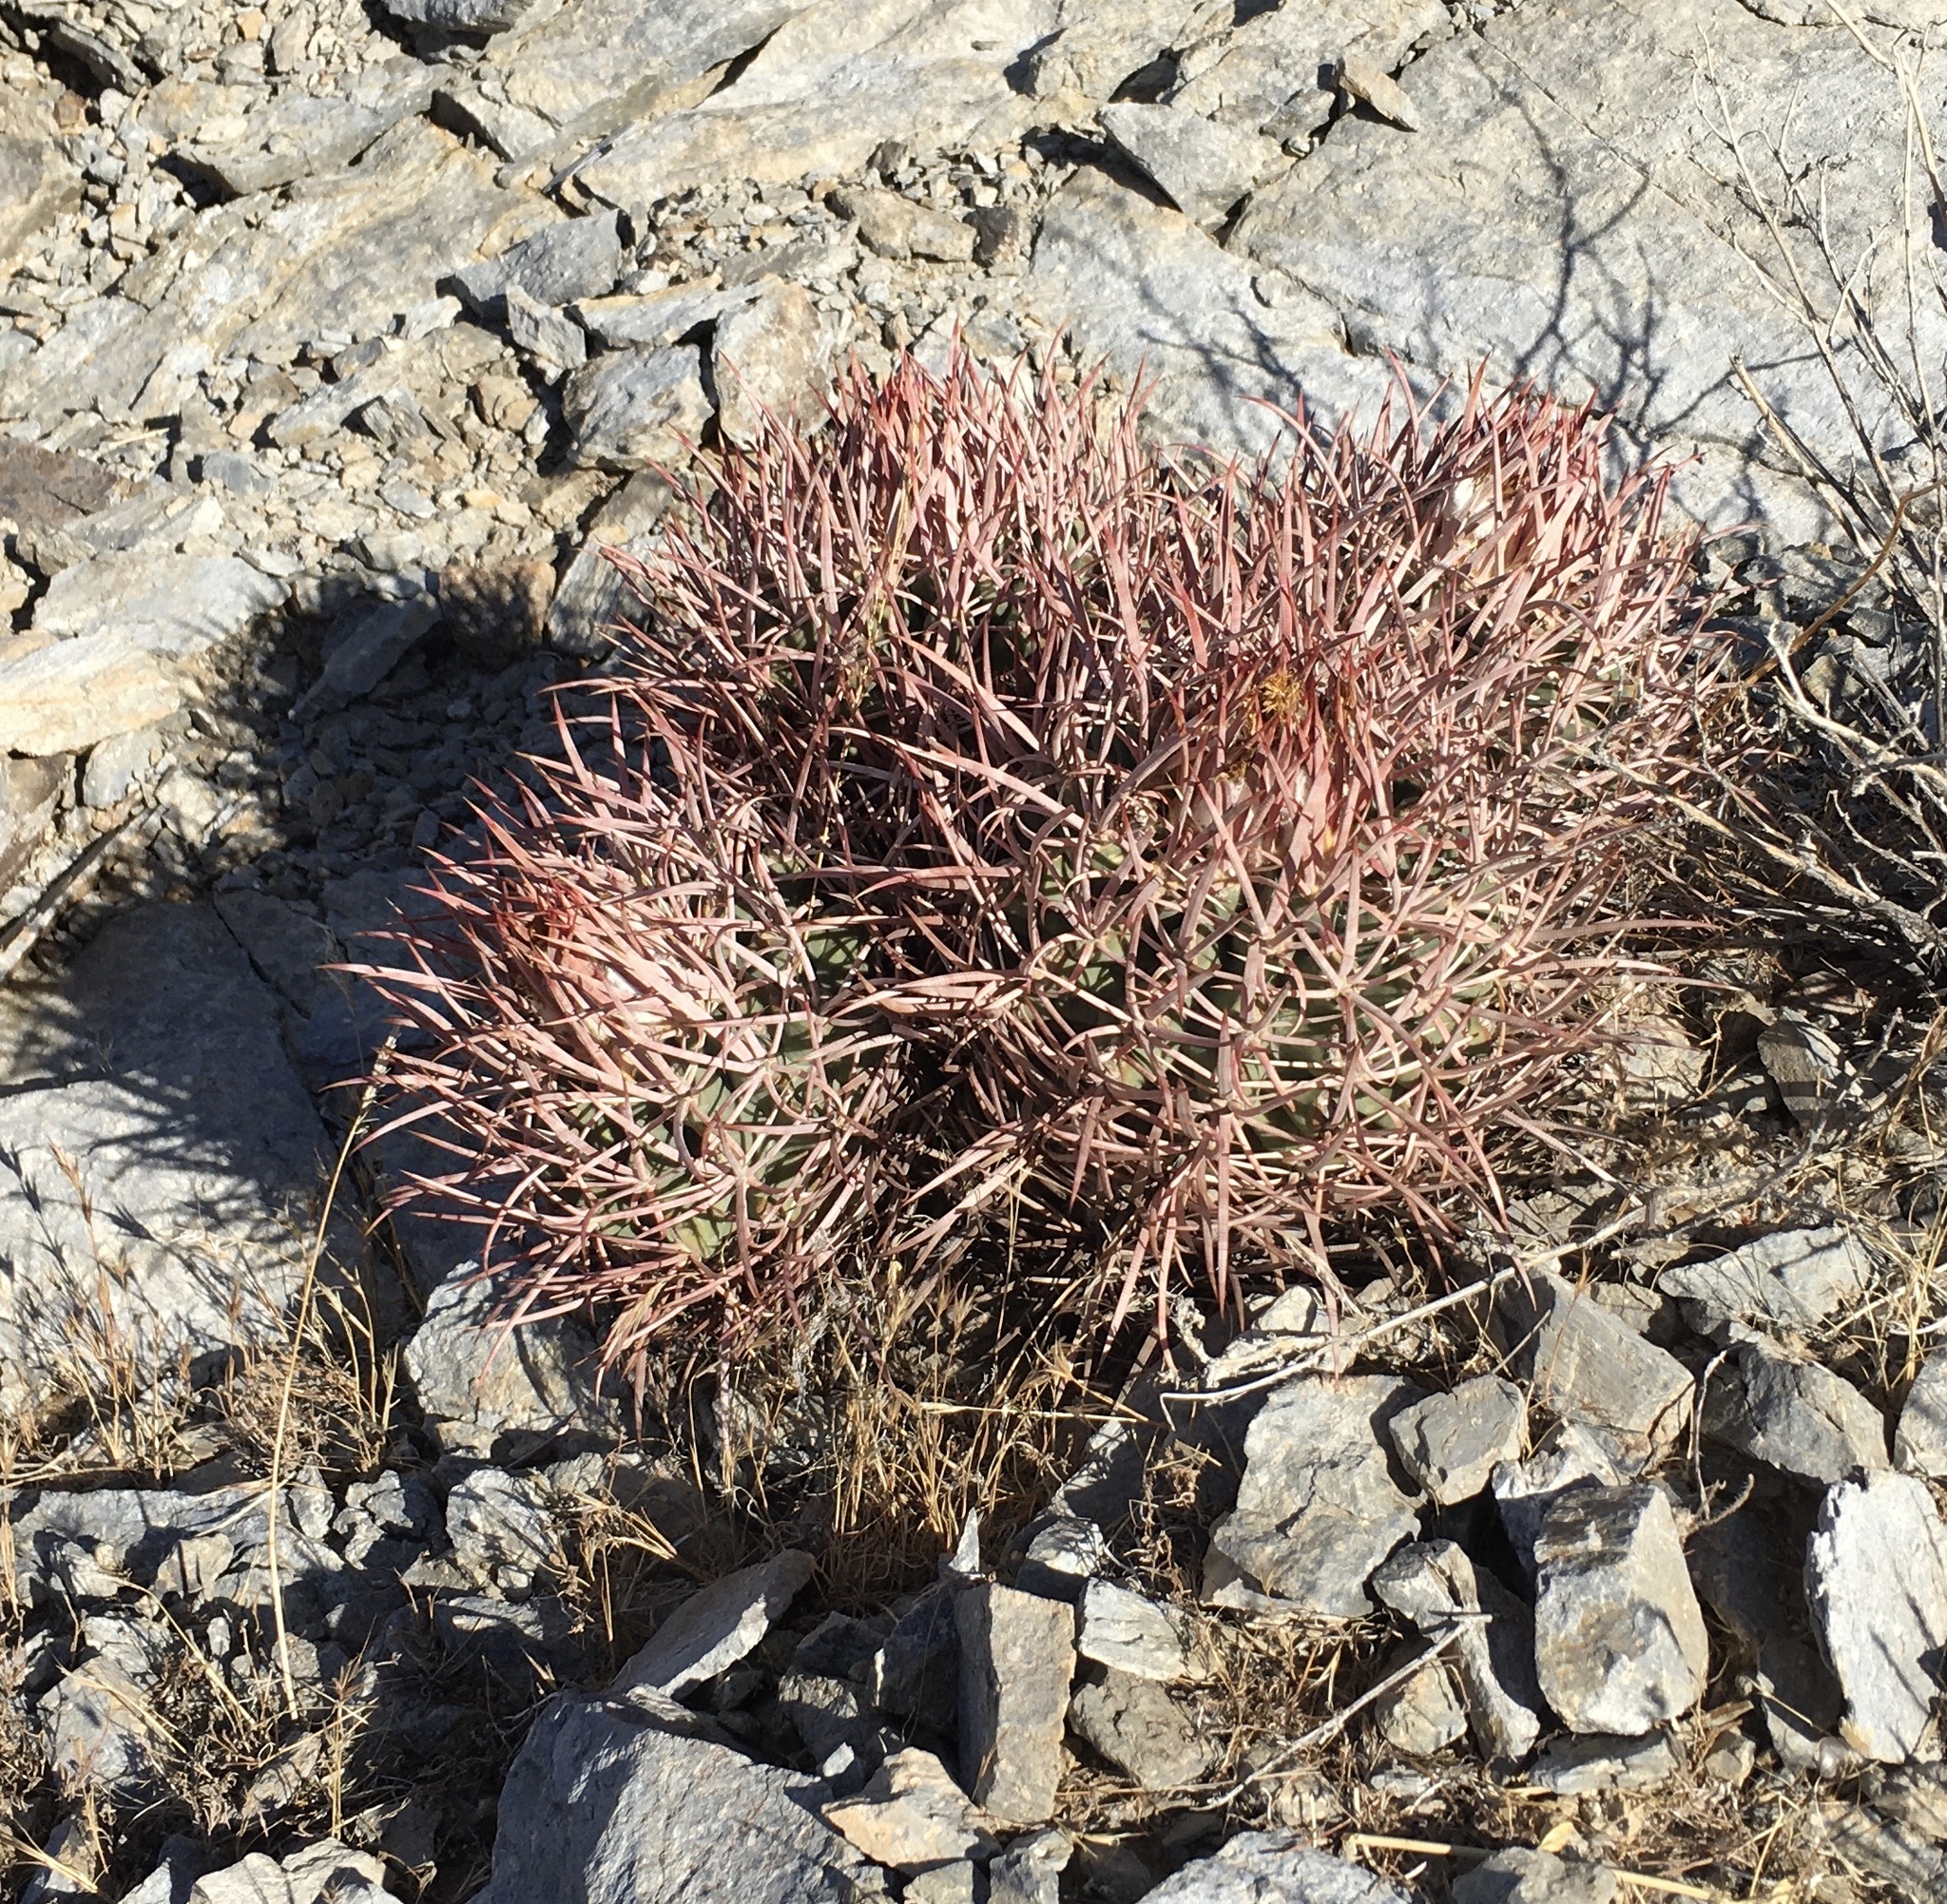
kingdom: Plantae
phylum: Tracheophyta
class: Magnoliopsida
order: Caryophyllales
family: Cactaceae
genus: Echinocactus
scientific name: Echinocactus polycephalus
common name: Cottontop cactus
